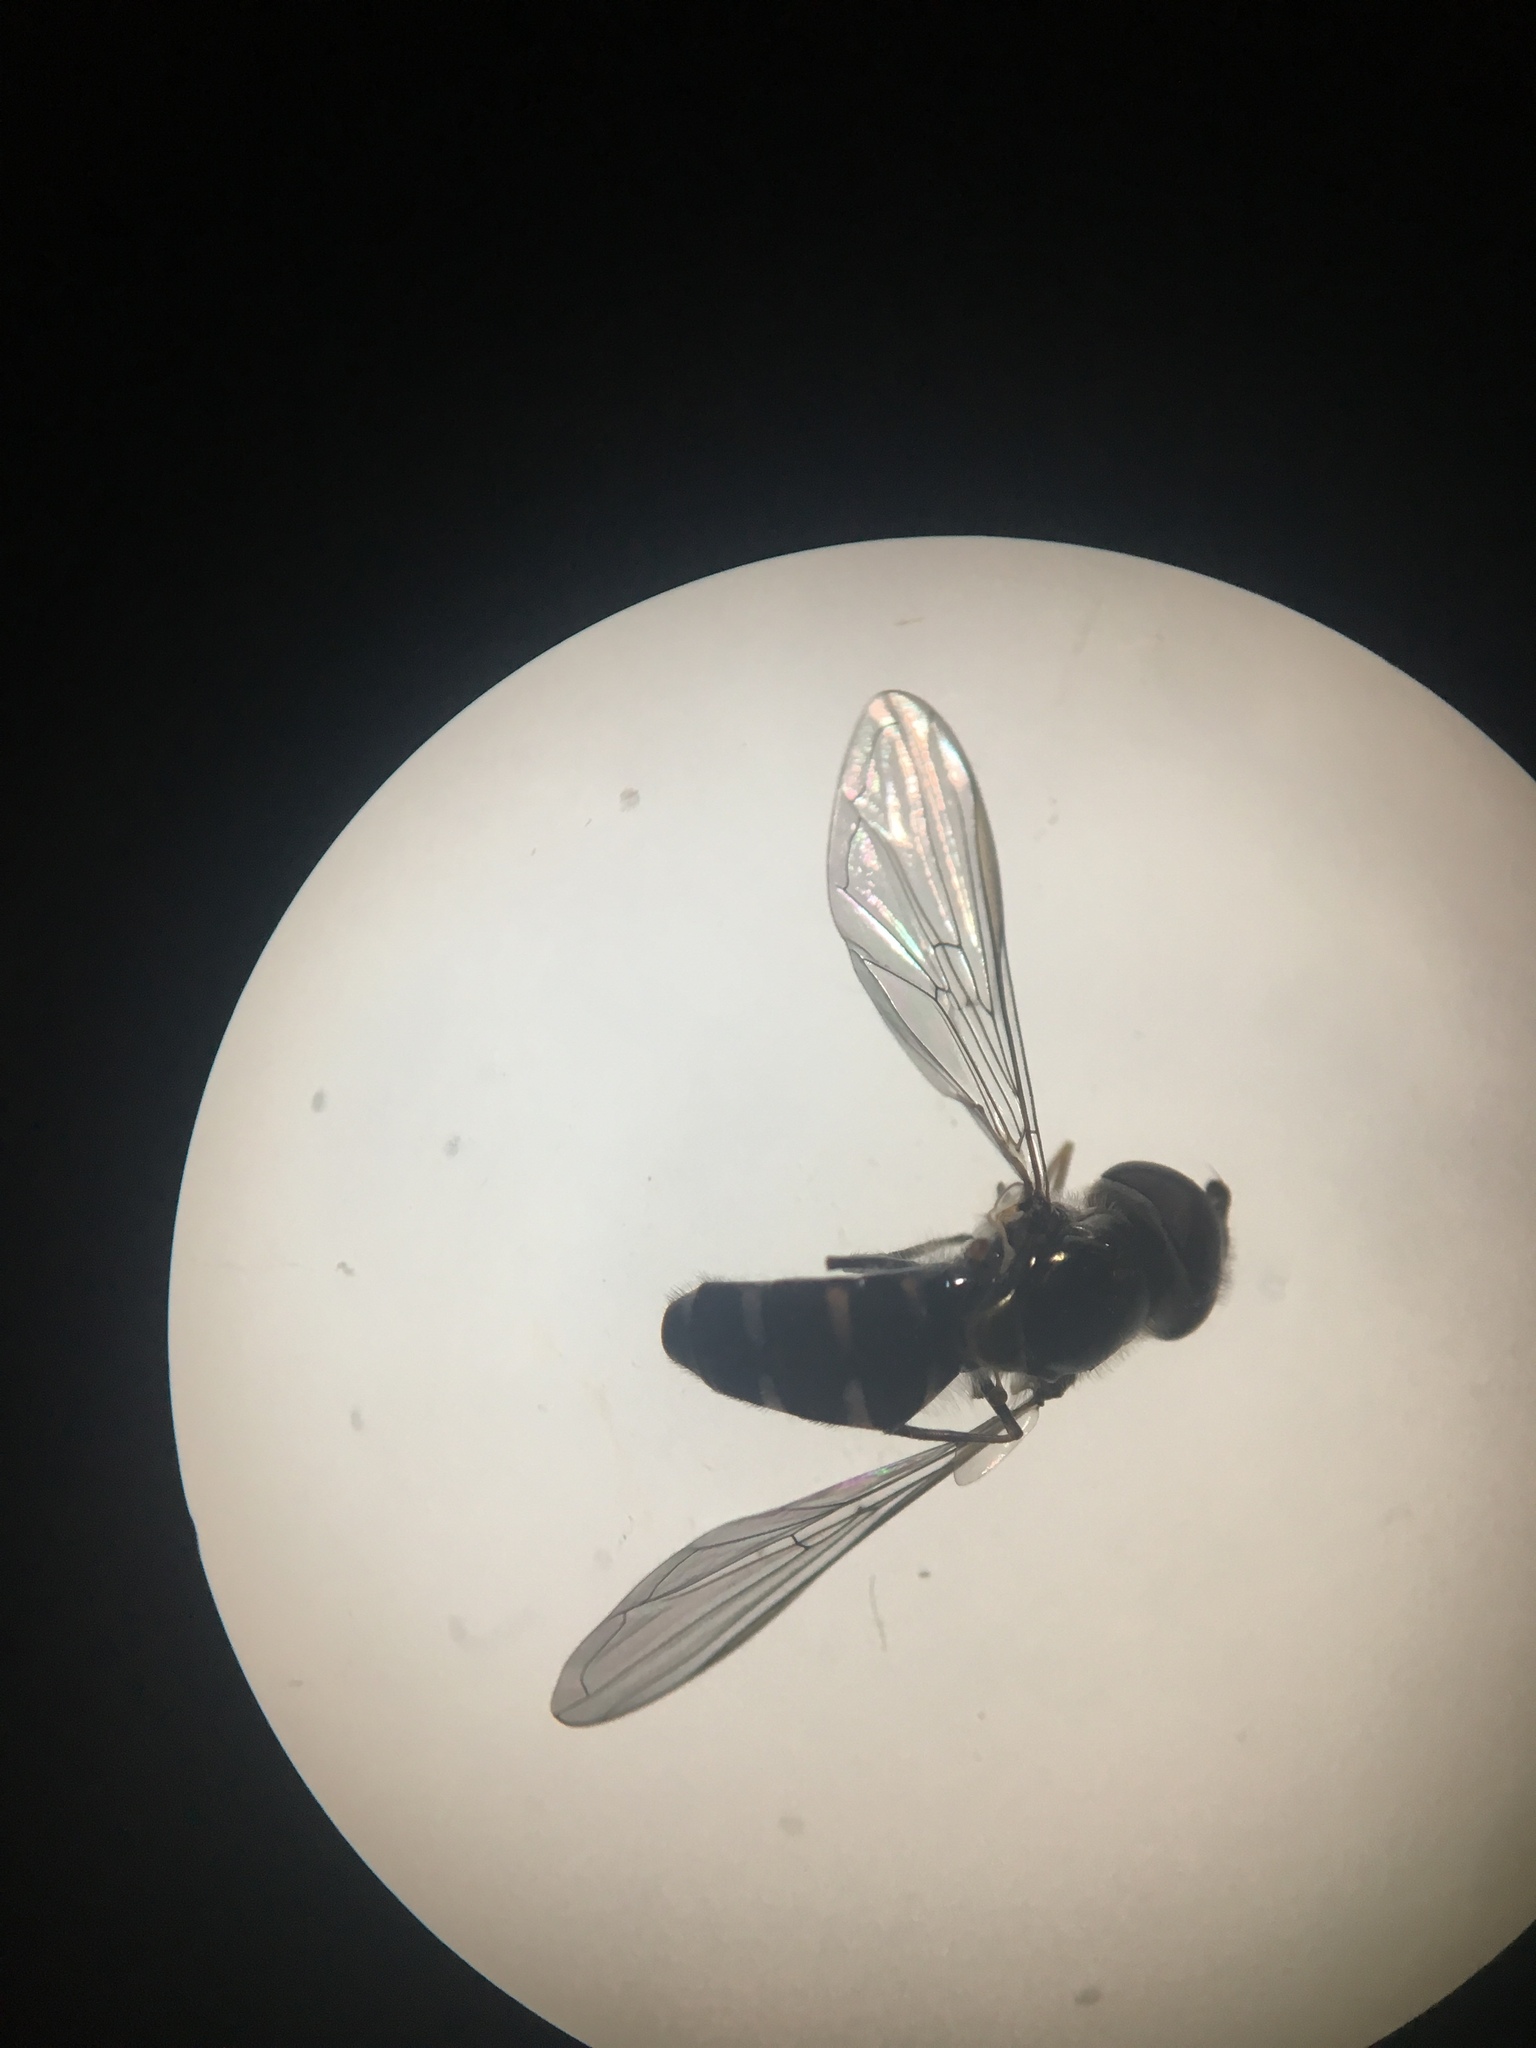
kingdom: Animalia
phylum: Arthropoda
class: Insecta
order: Diptera
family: Syrphidae
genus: Melangyna
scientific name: Melangyna novaezelandiae
